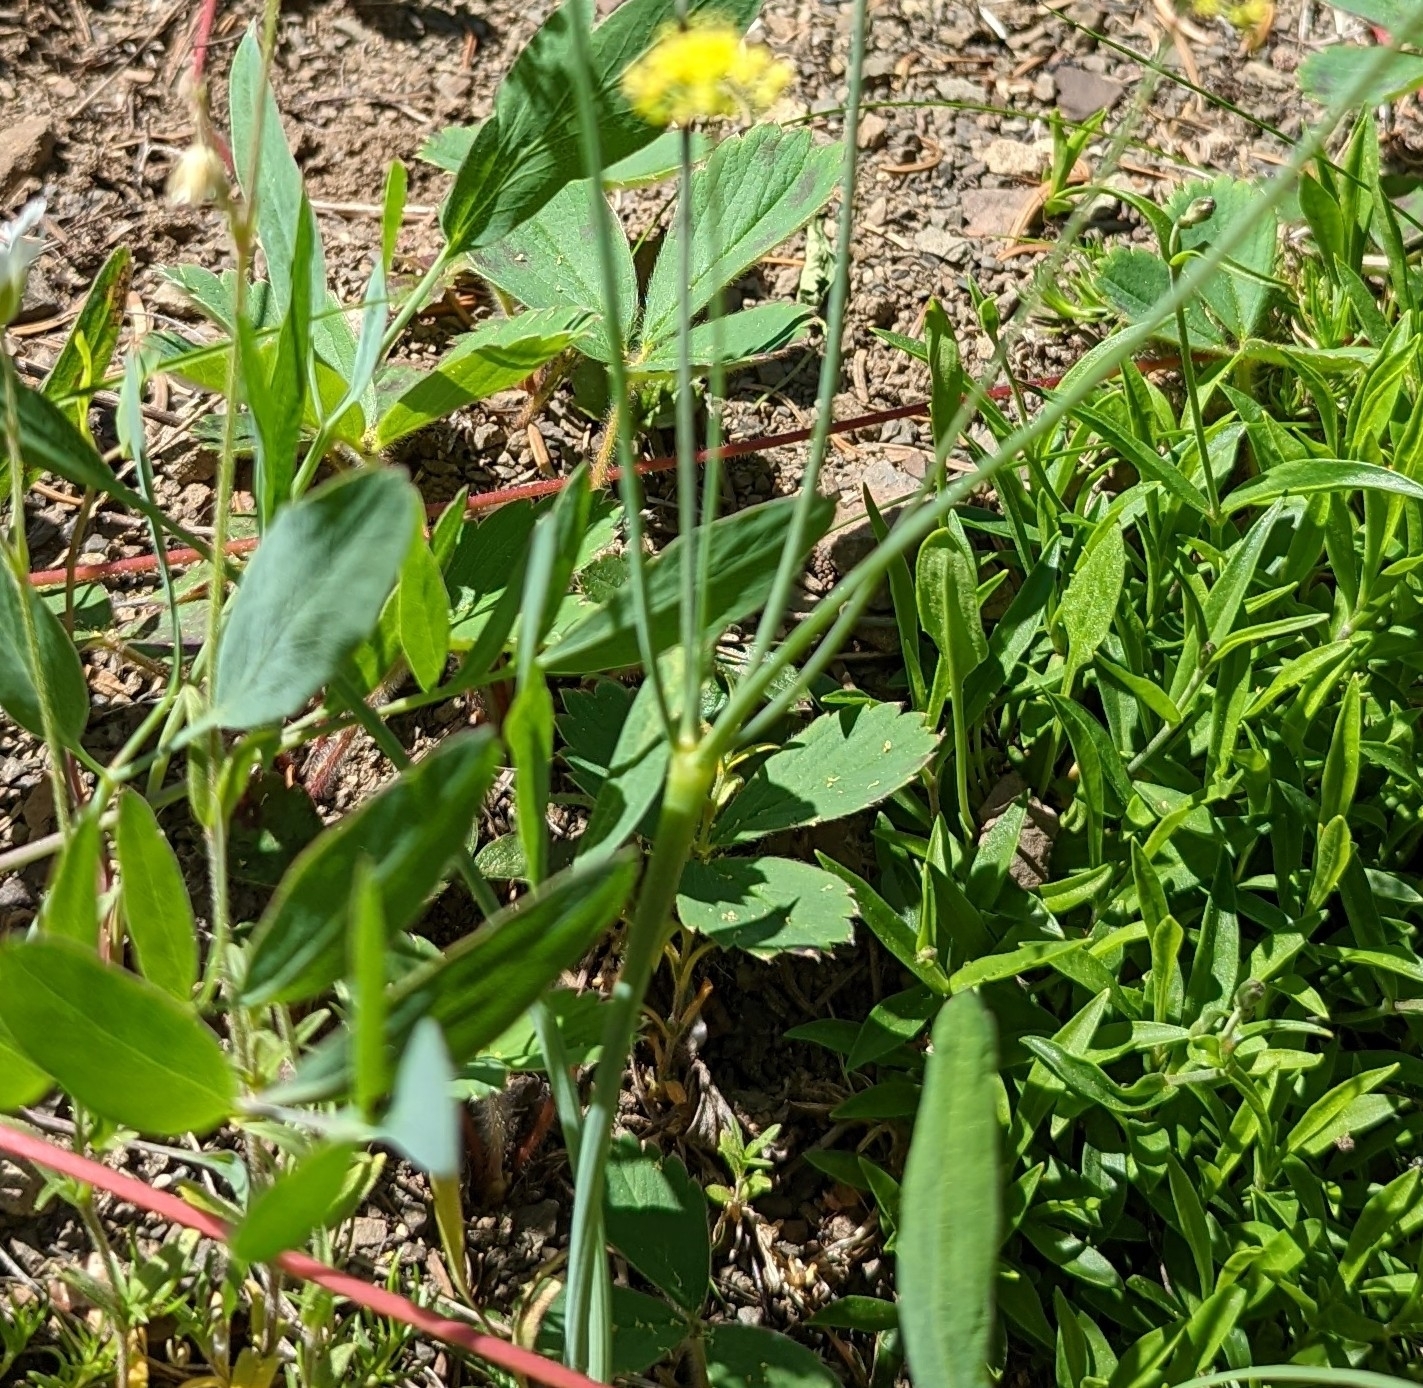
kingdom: Plantae
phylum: Tracheophyta
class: Magnoliopsida
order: Apiales
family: Apiaceae
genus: Lomatium
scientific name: Lomatium nudicaule
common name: Pestle lomatium
